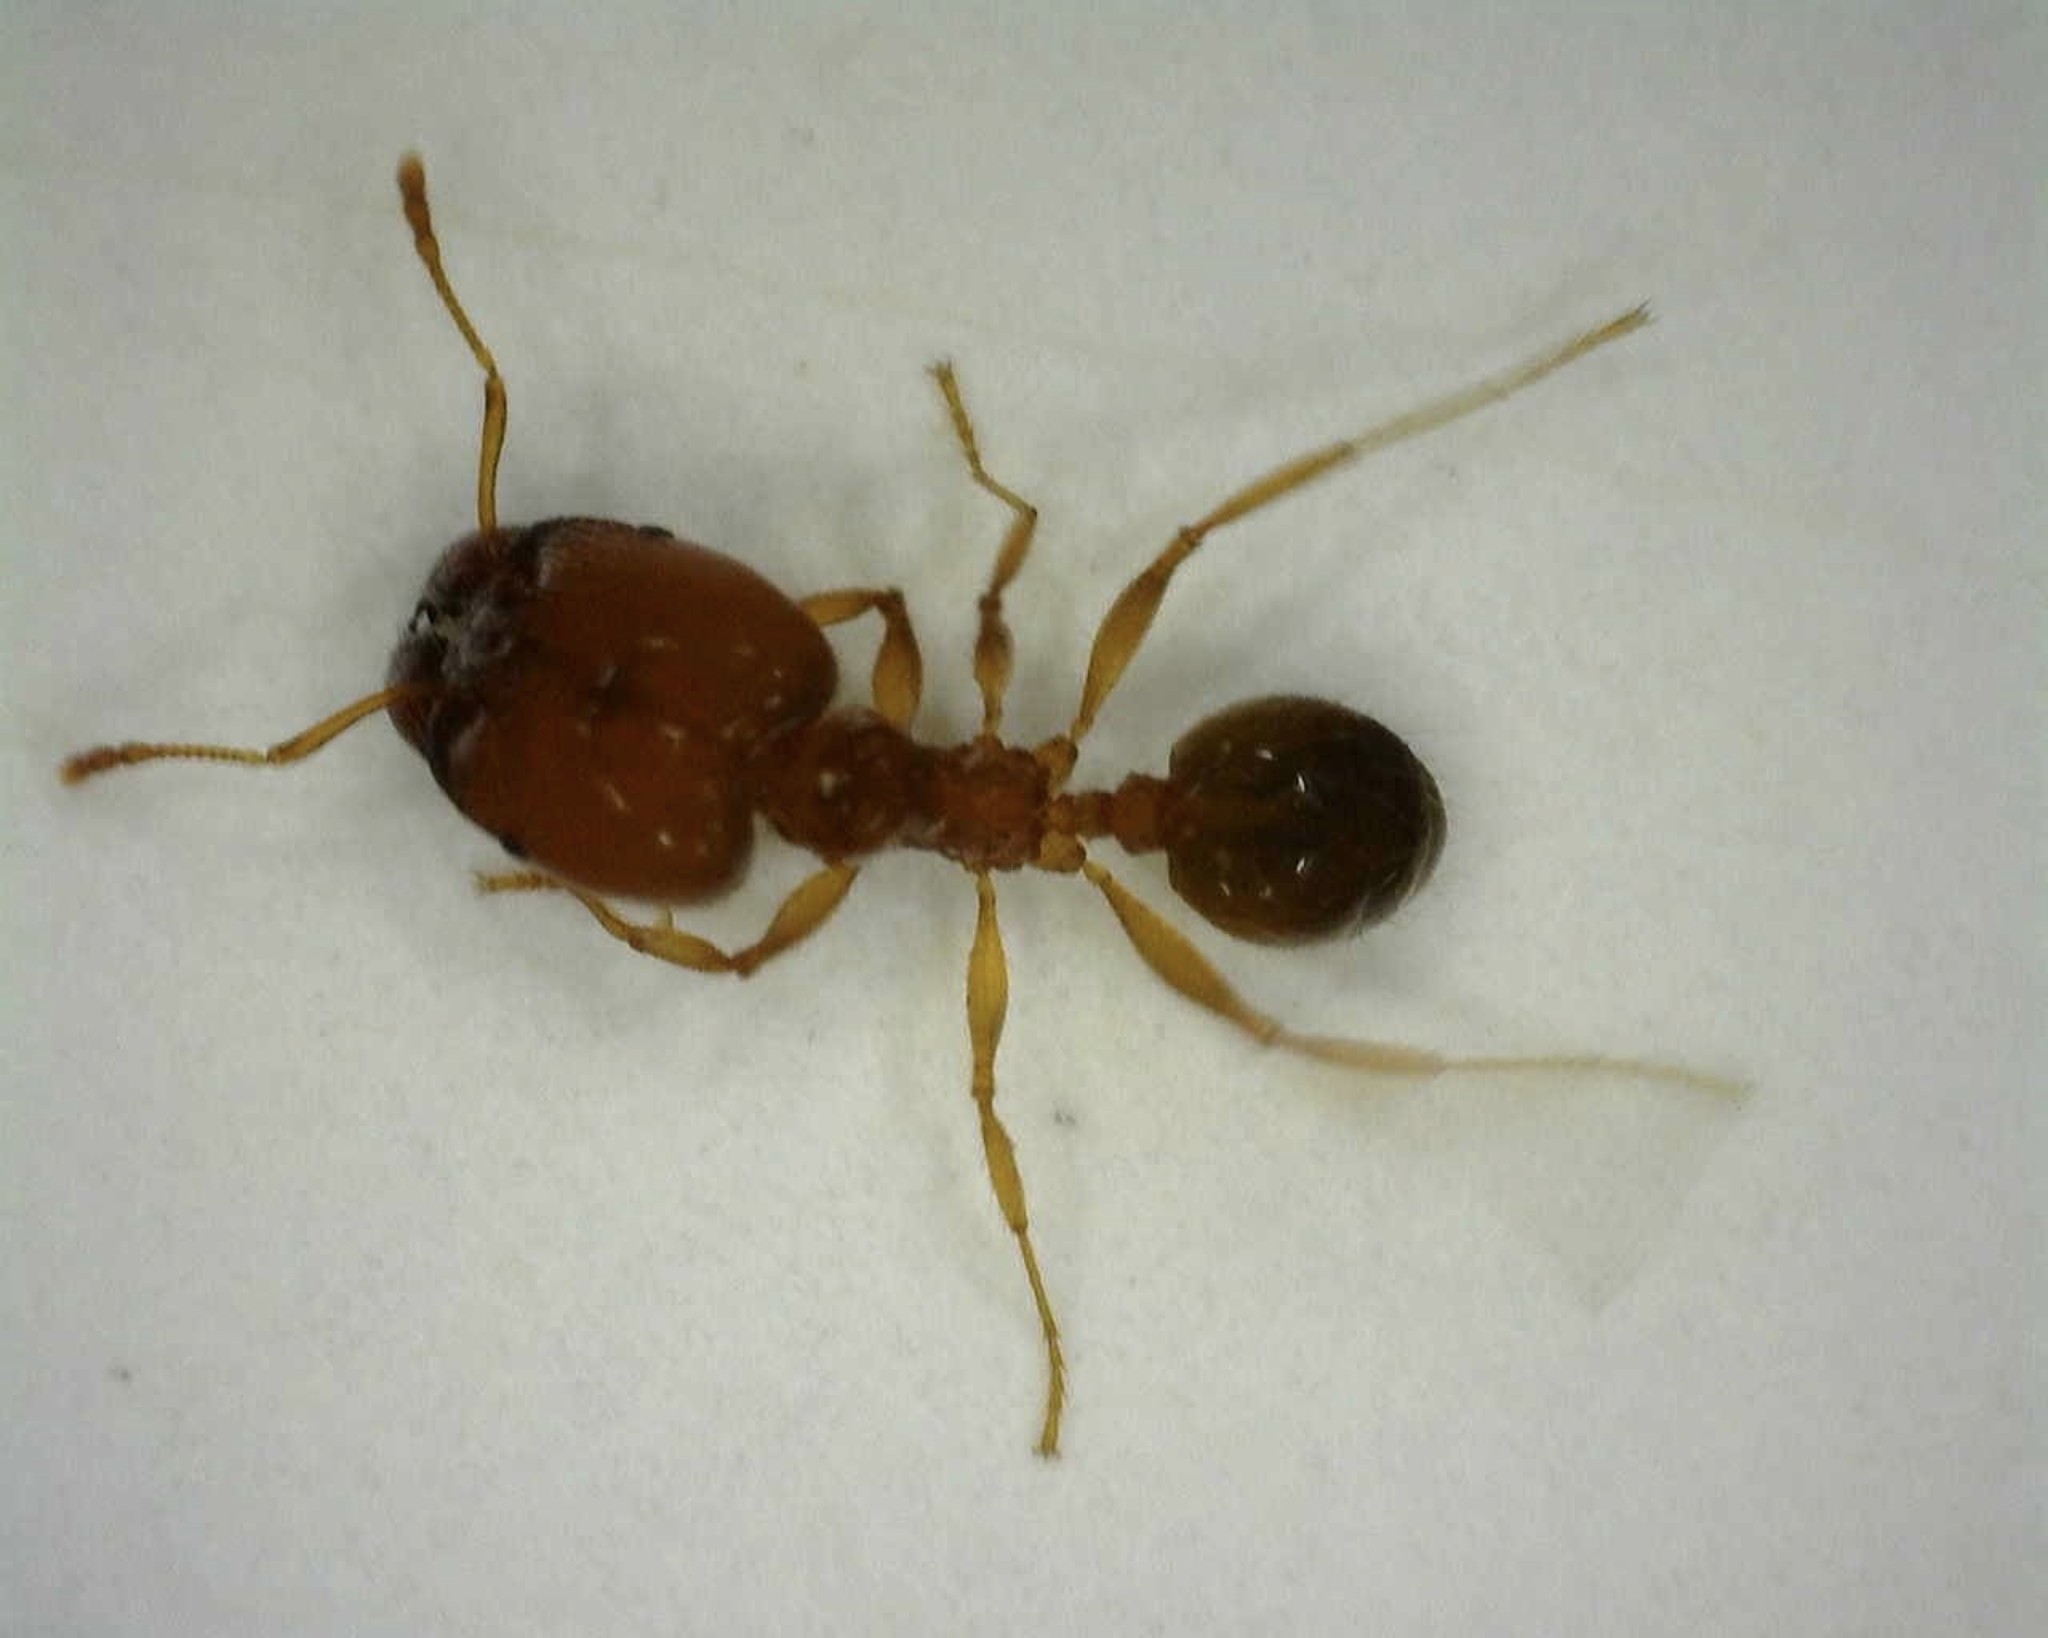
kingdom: Animalia
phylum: Arthropoda
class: Insecta
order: Hymenoptera
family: Formicidae
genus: Pheidole
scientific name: Pheidole pallidula
